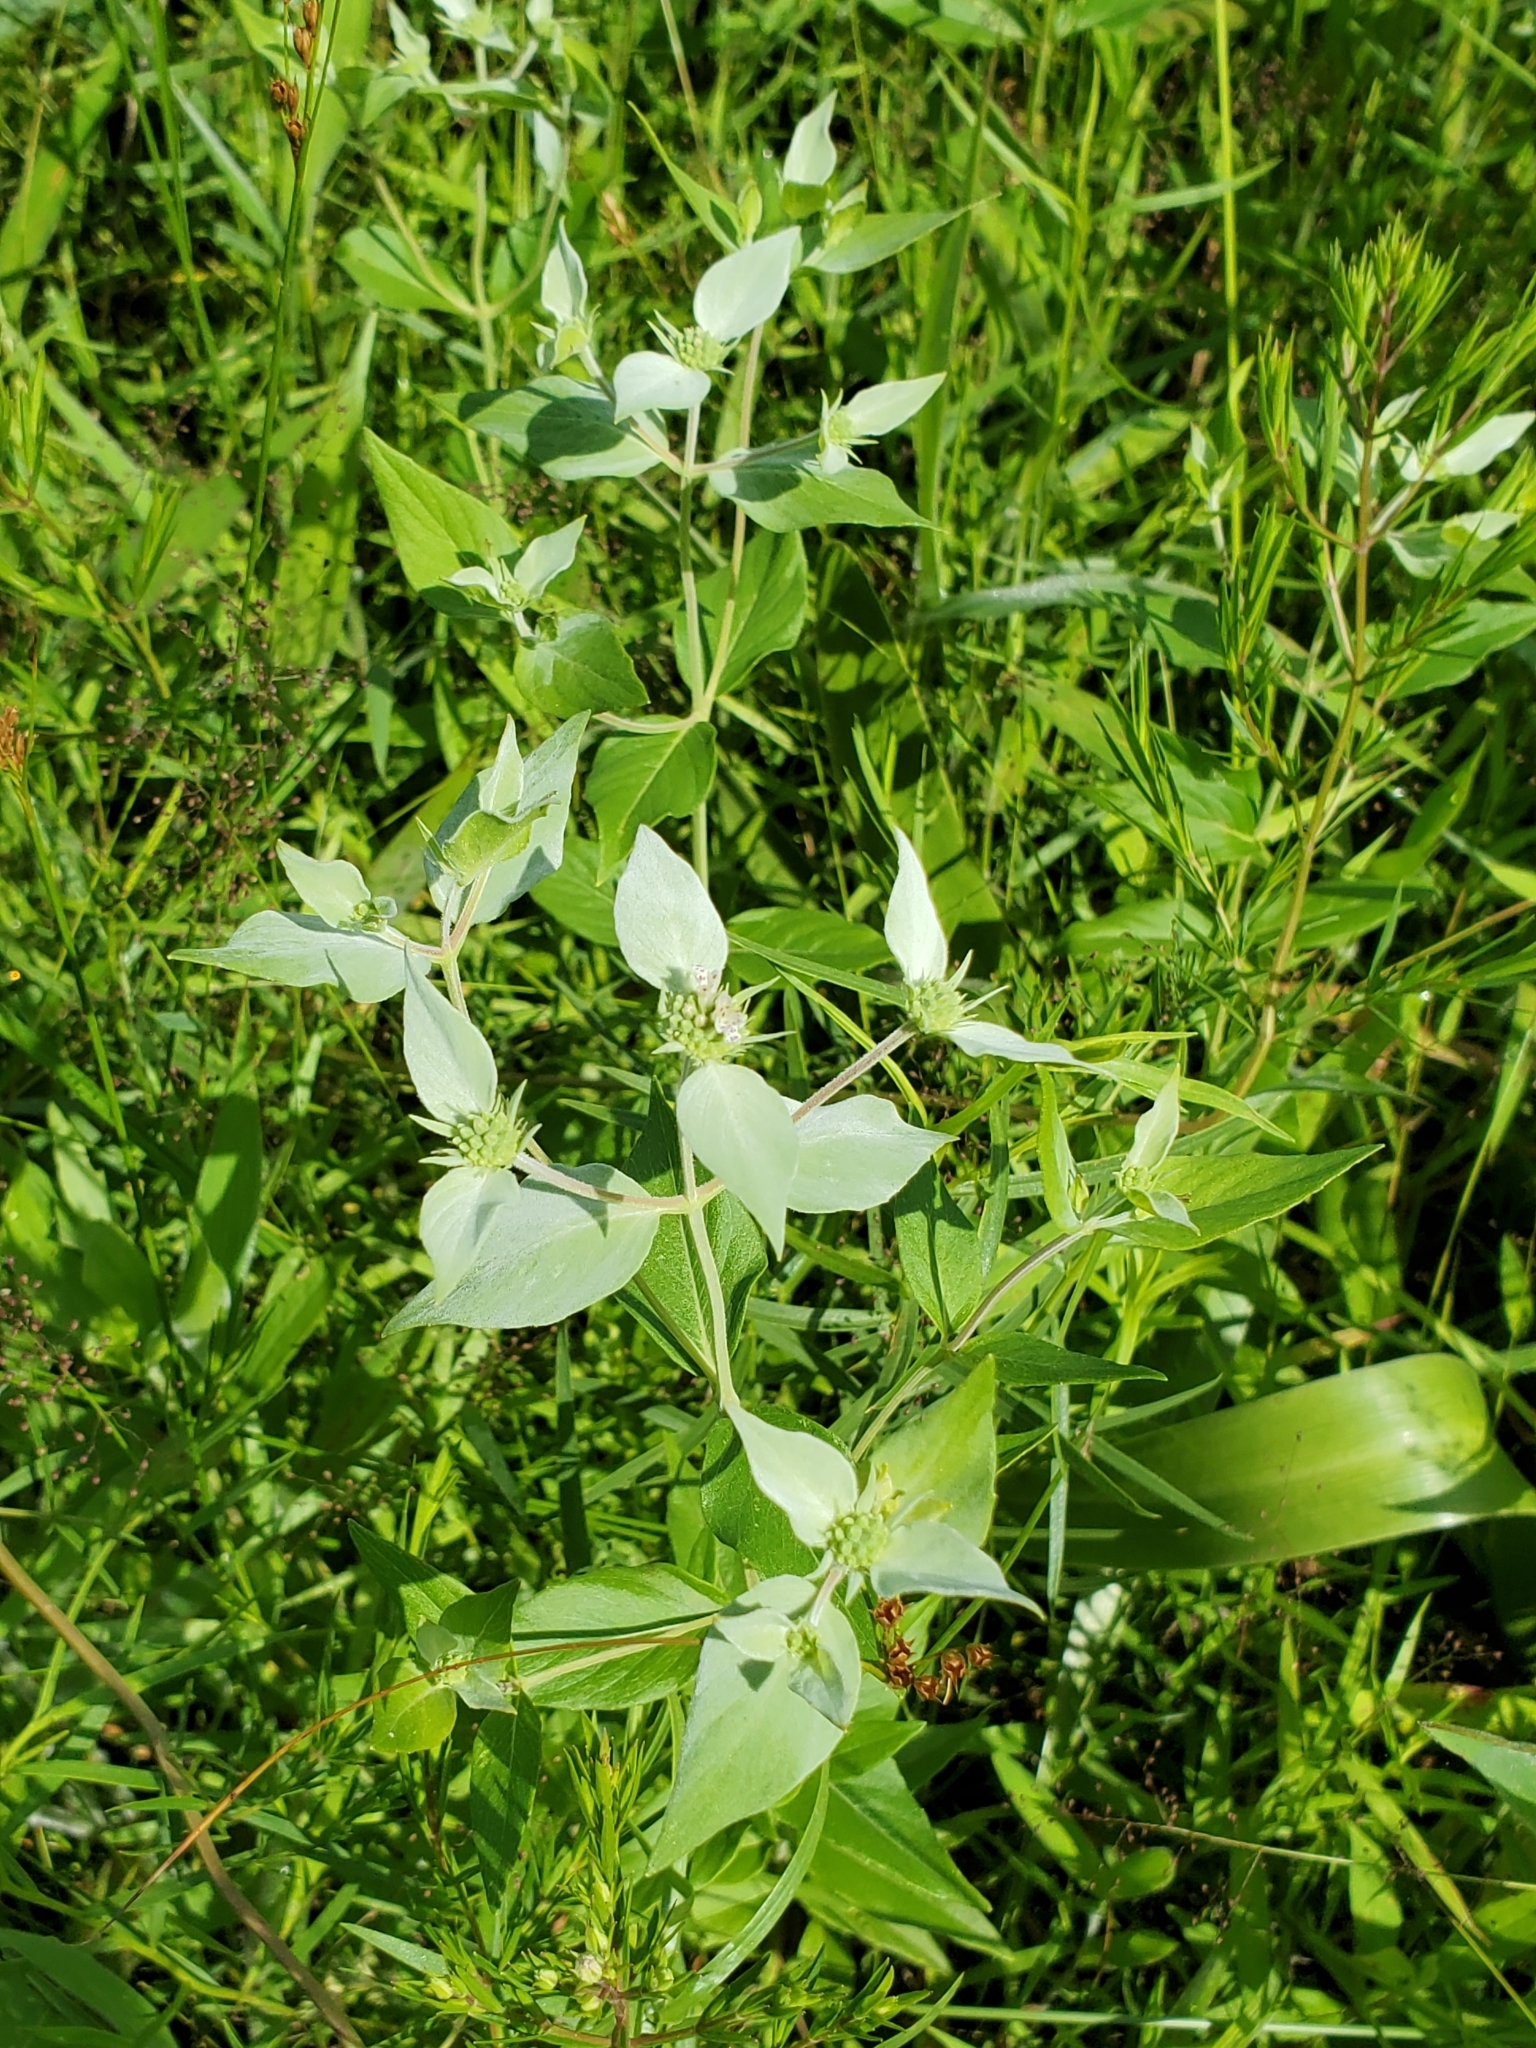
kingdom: Plantae
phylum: Tracheophyta
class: Magnoliopsida
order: Lamiales
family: Lamiaceae
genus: Pycnanthemum
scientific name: Pycnanthemum muticum
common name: Blunt mountain-mint
